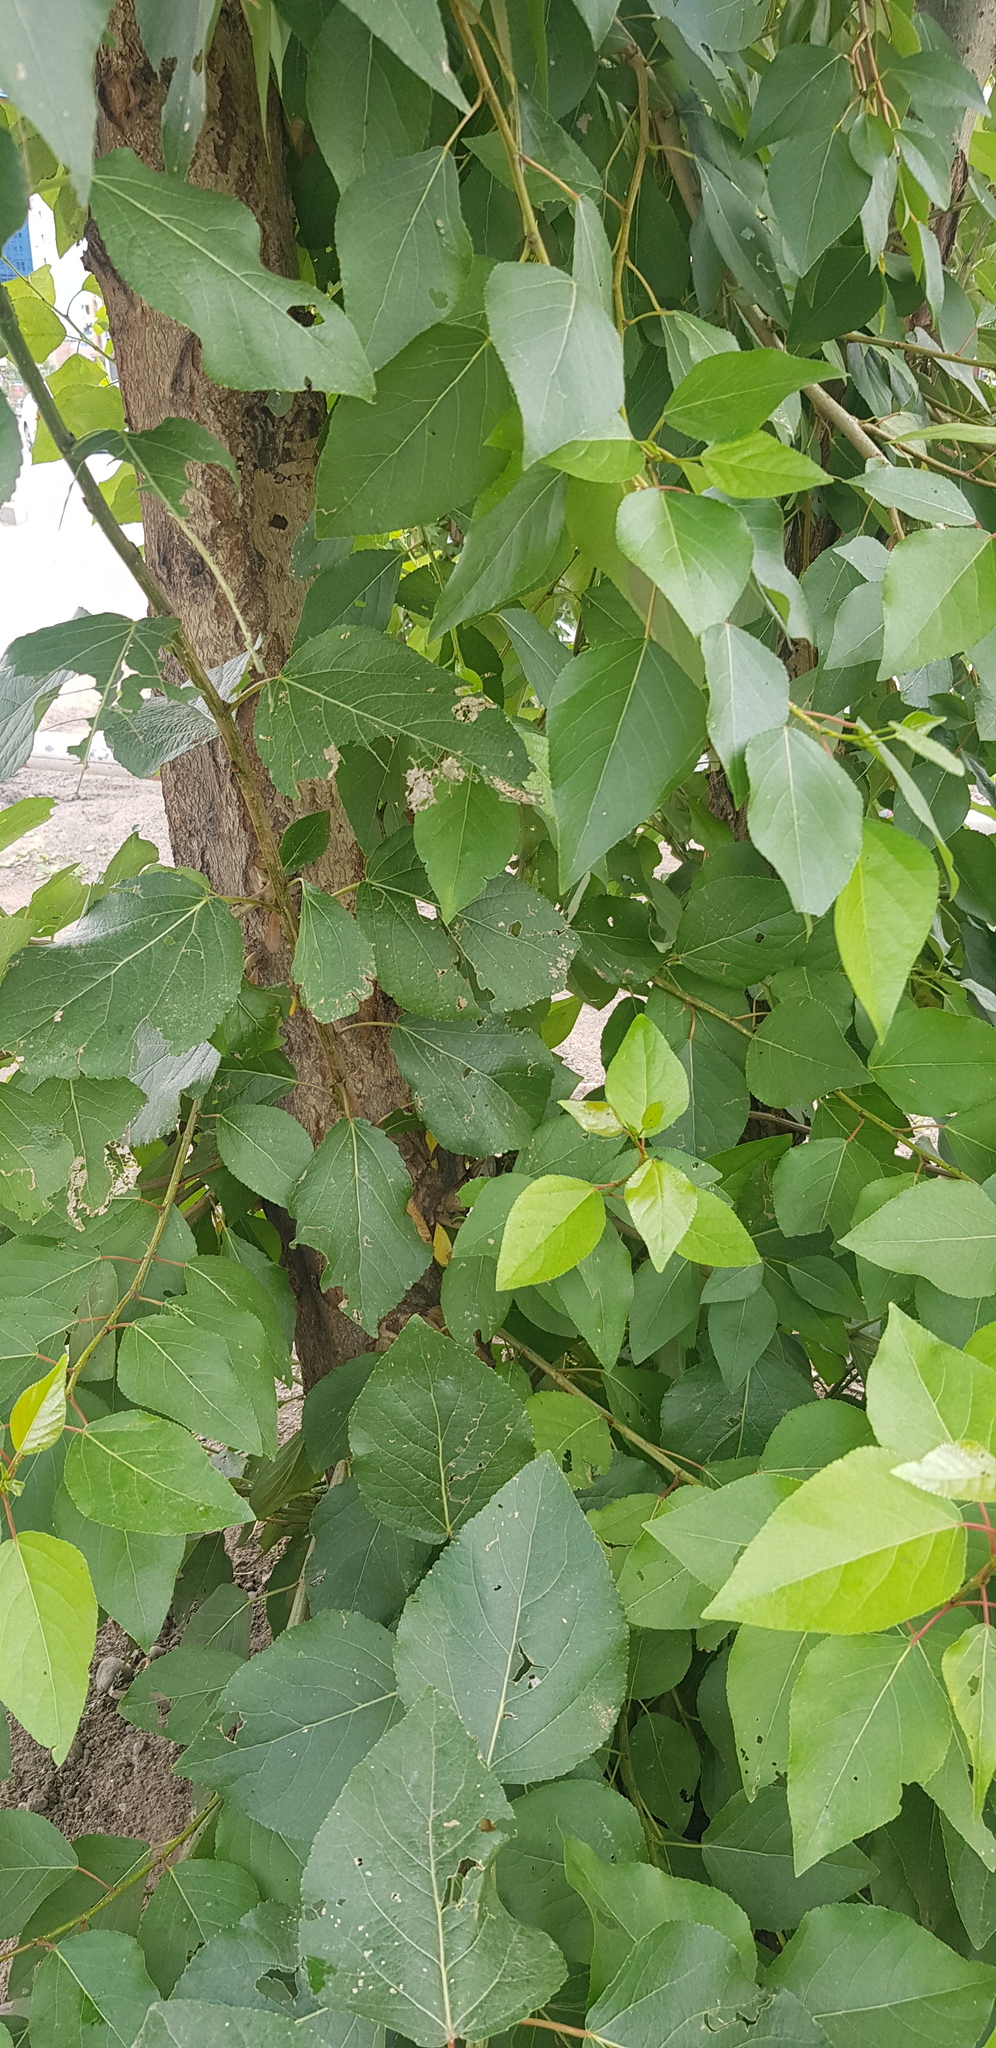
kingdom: Plantae
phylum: Tracheophyta
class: Magnoliopsida
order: Malpighiales
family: Salicaceae
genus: Populus
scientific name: Populus suaveolens
